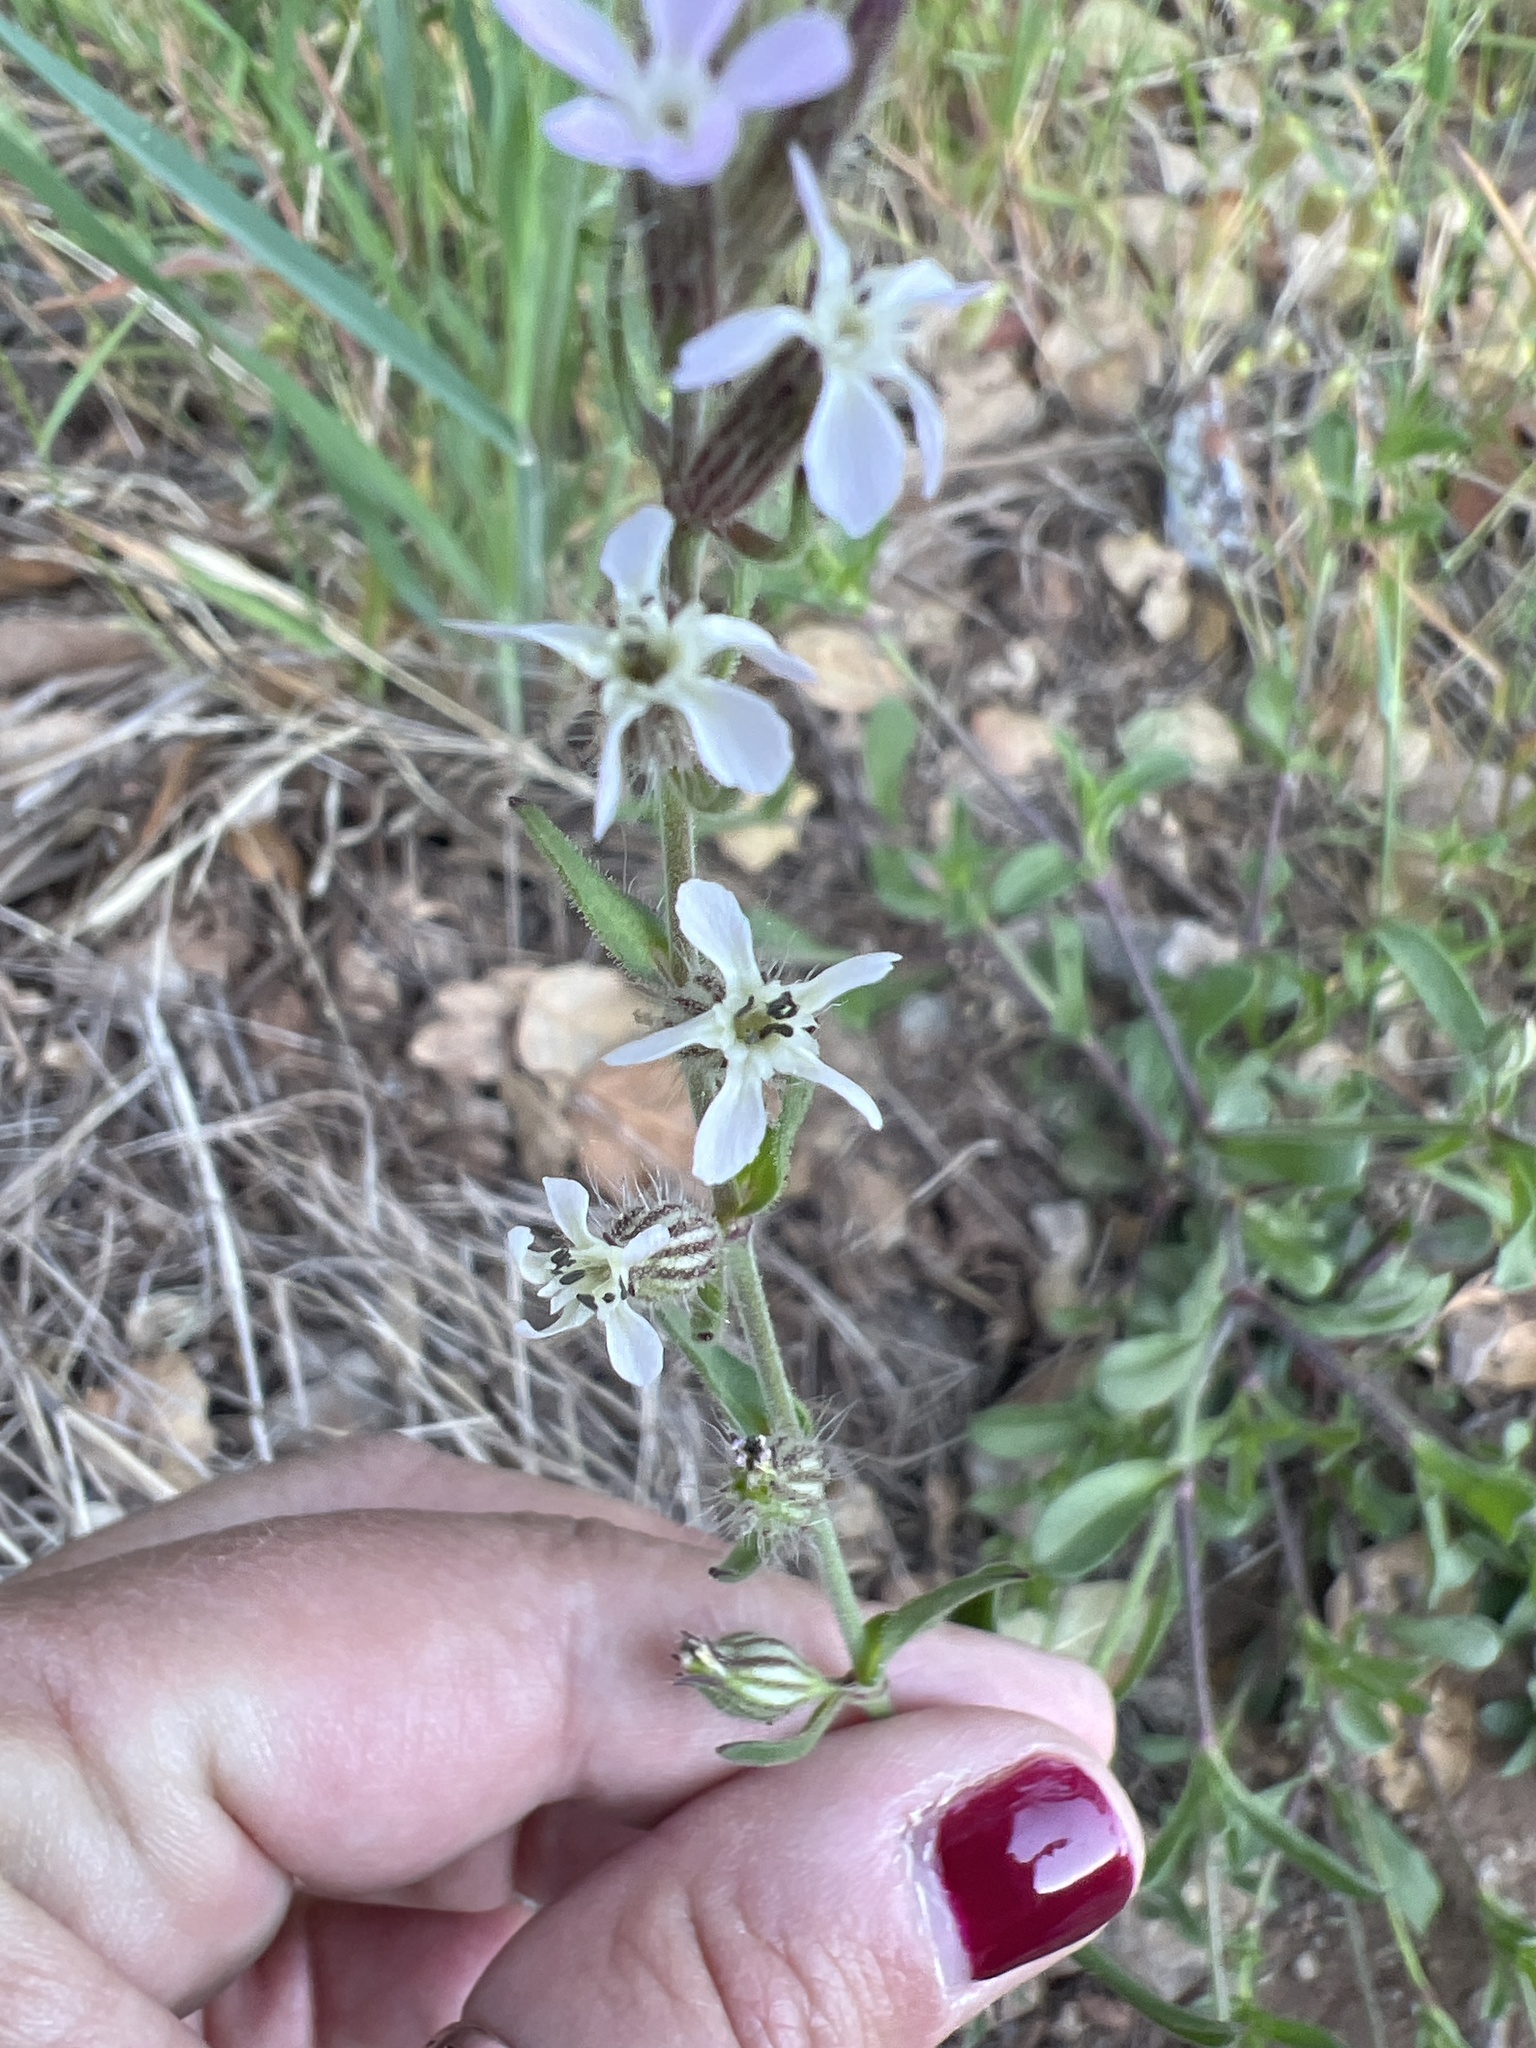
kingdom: Plantae
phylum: Tracheophyta
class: Magnoliopsida
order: Caryophyllales
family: Caryophyllaceae
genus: Silene
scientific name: Silene gallica
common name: Small-flowered catchfly
